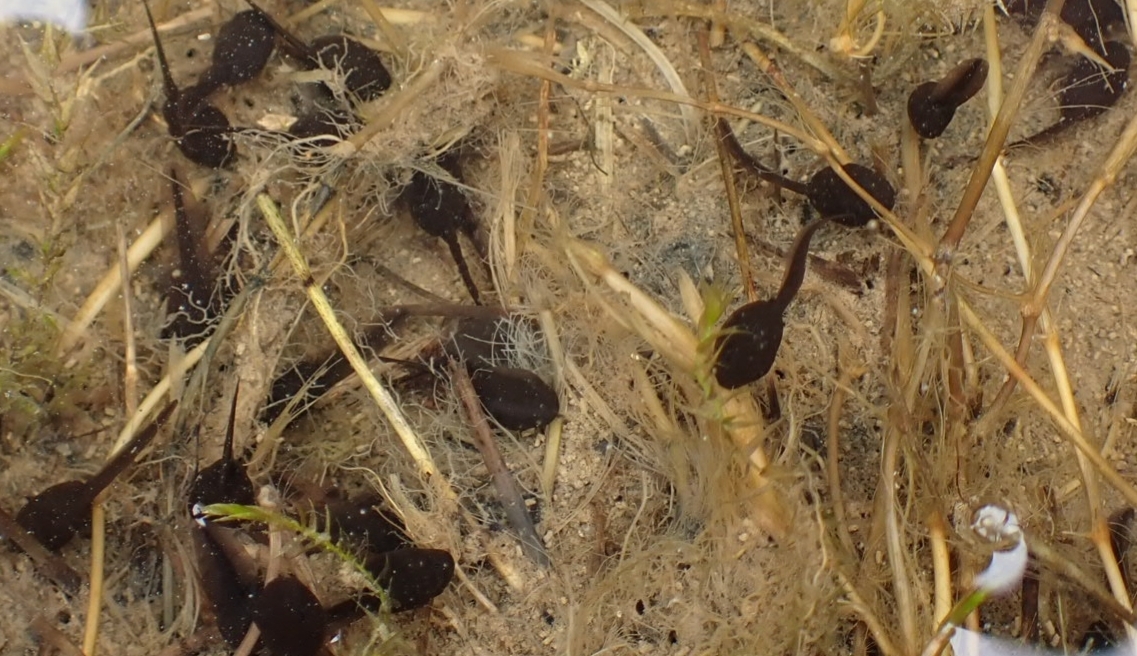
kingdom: Animalia
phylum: Chordata
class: Amphibia
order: Anura
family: Ranidae
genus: Rana
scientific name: Rana temporaria
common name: Common frog
